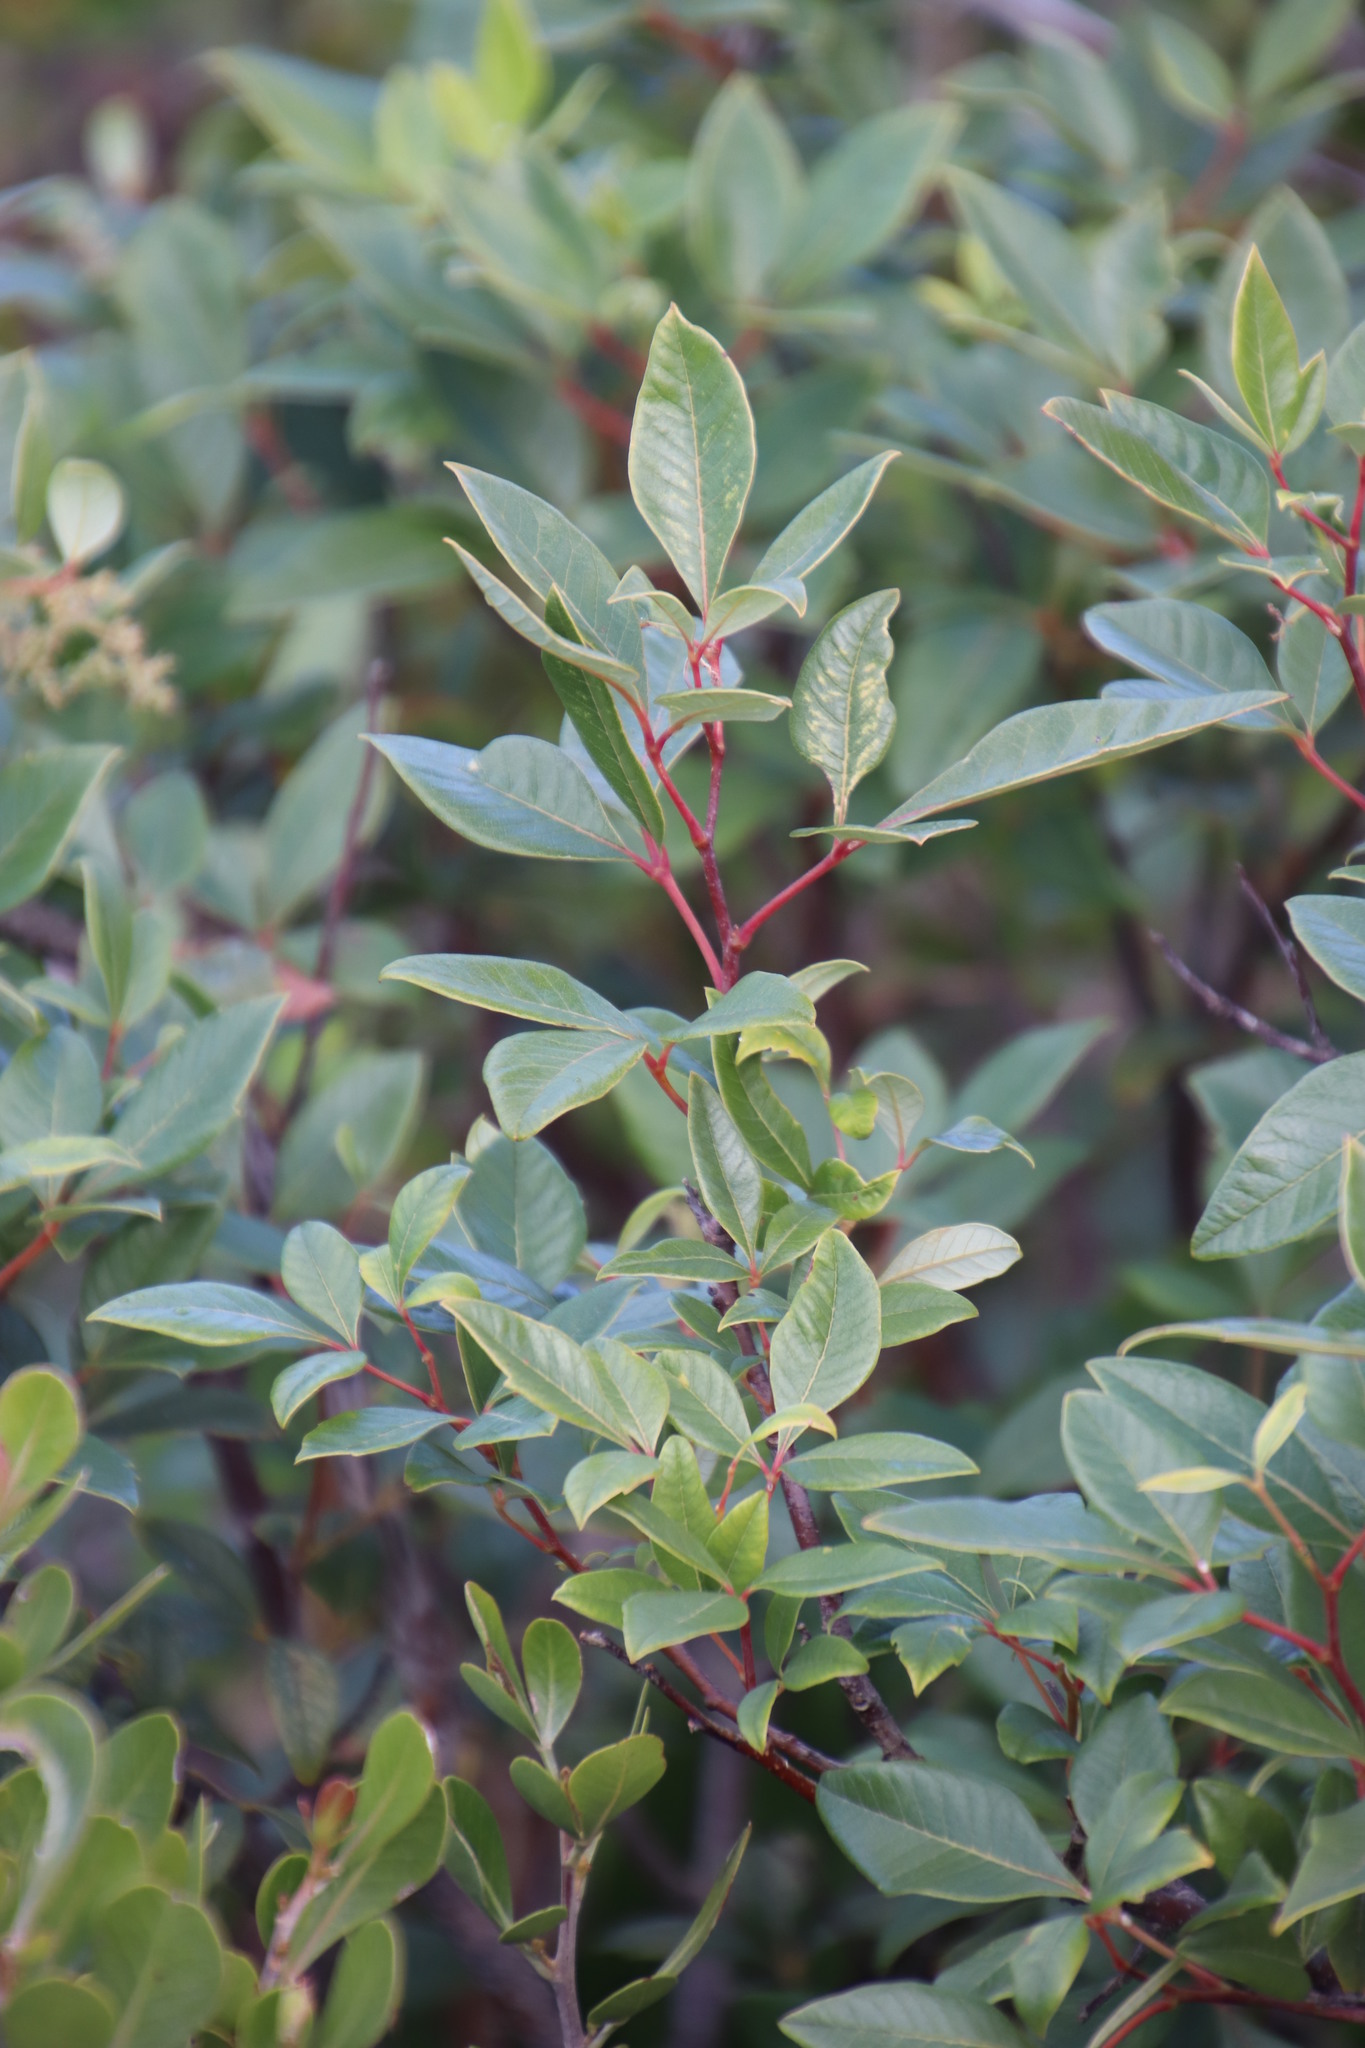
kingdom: Plantae
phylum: Tracheophyta
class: Magnoliopsida
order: Sapindales
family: Anacardiaceae
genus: Searsia
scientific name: Searsia tomentosa
